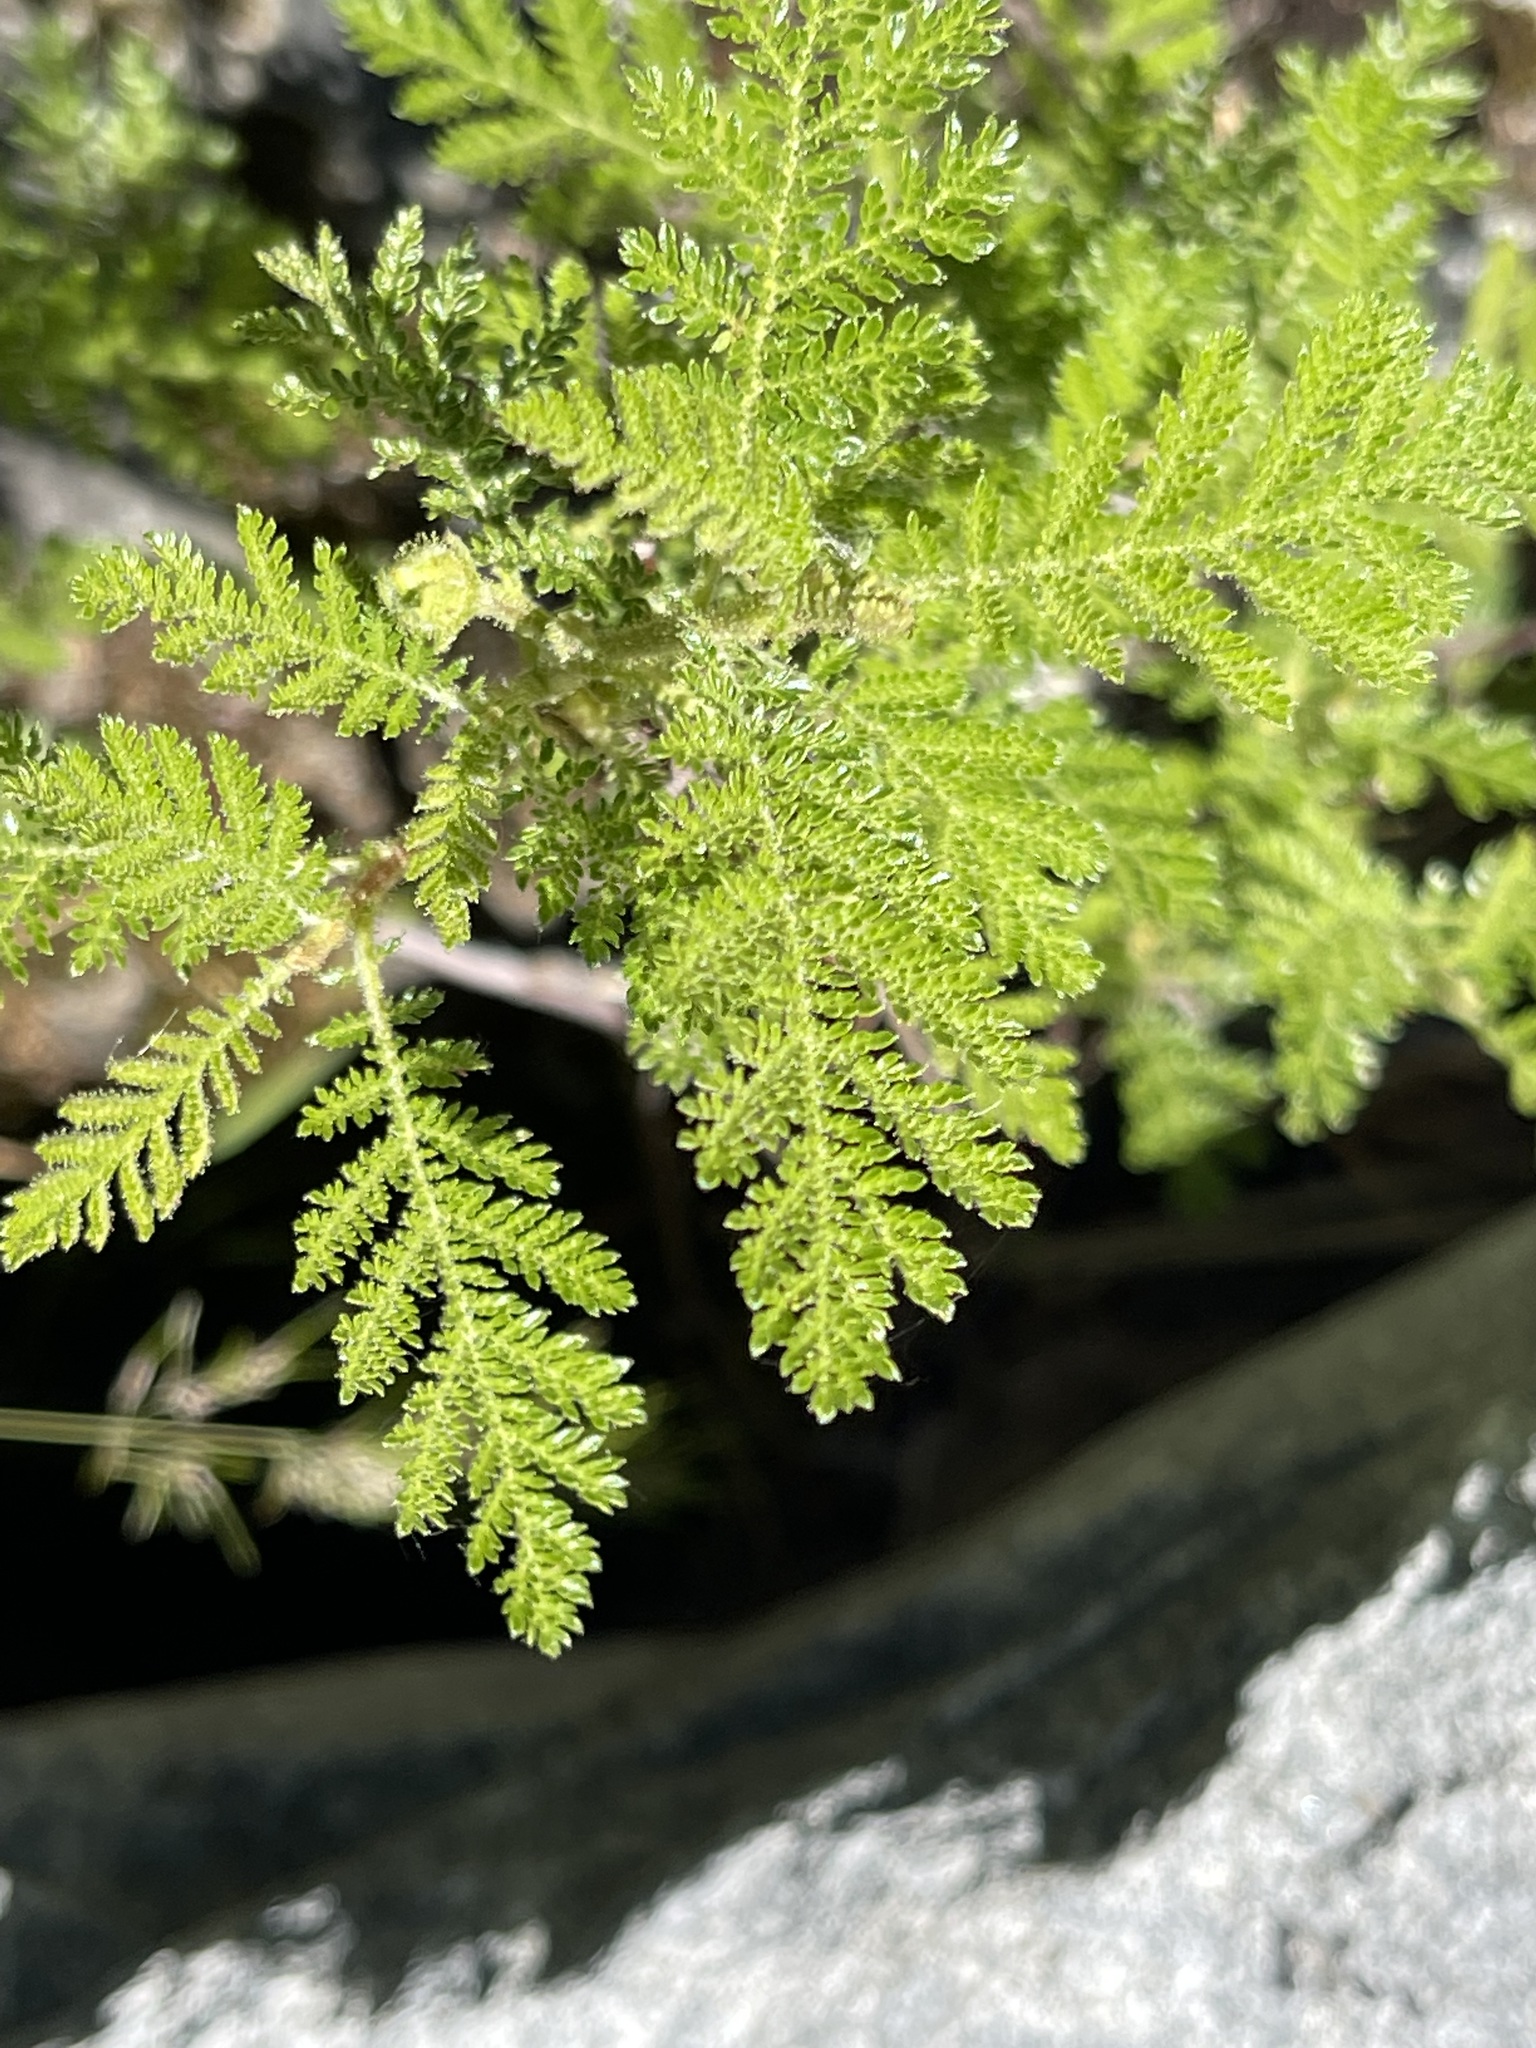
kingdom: Plantae
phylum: Tracheophyta
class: Magnoliopsida
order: Rosales
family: Rosaceae
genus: Chamaebatia
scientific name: Chamaebatia foliolosa
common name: Mountain misery
